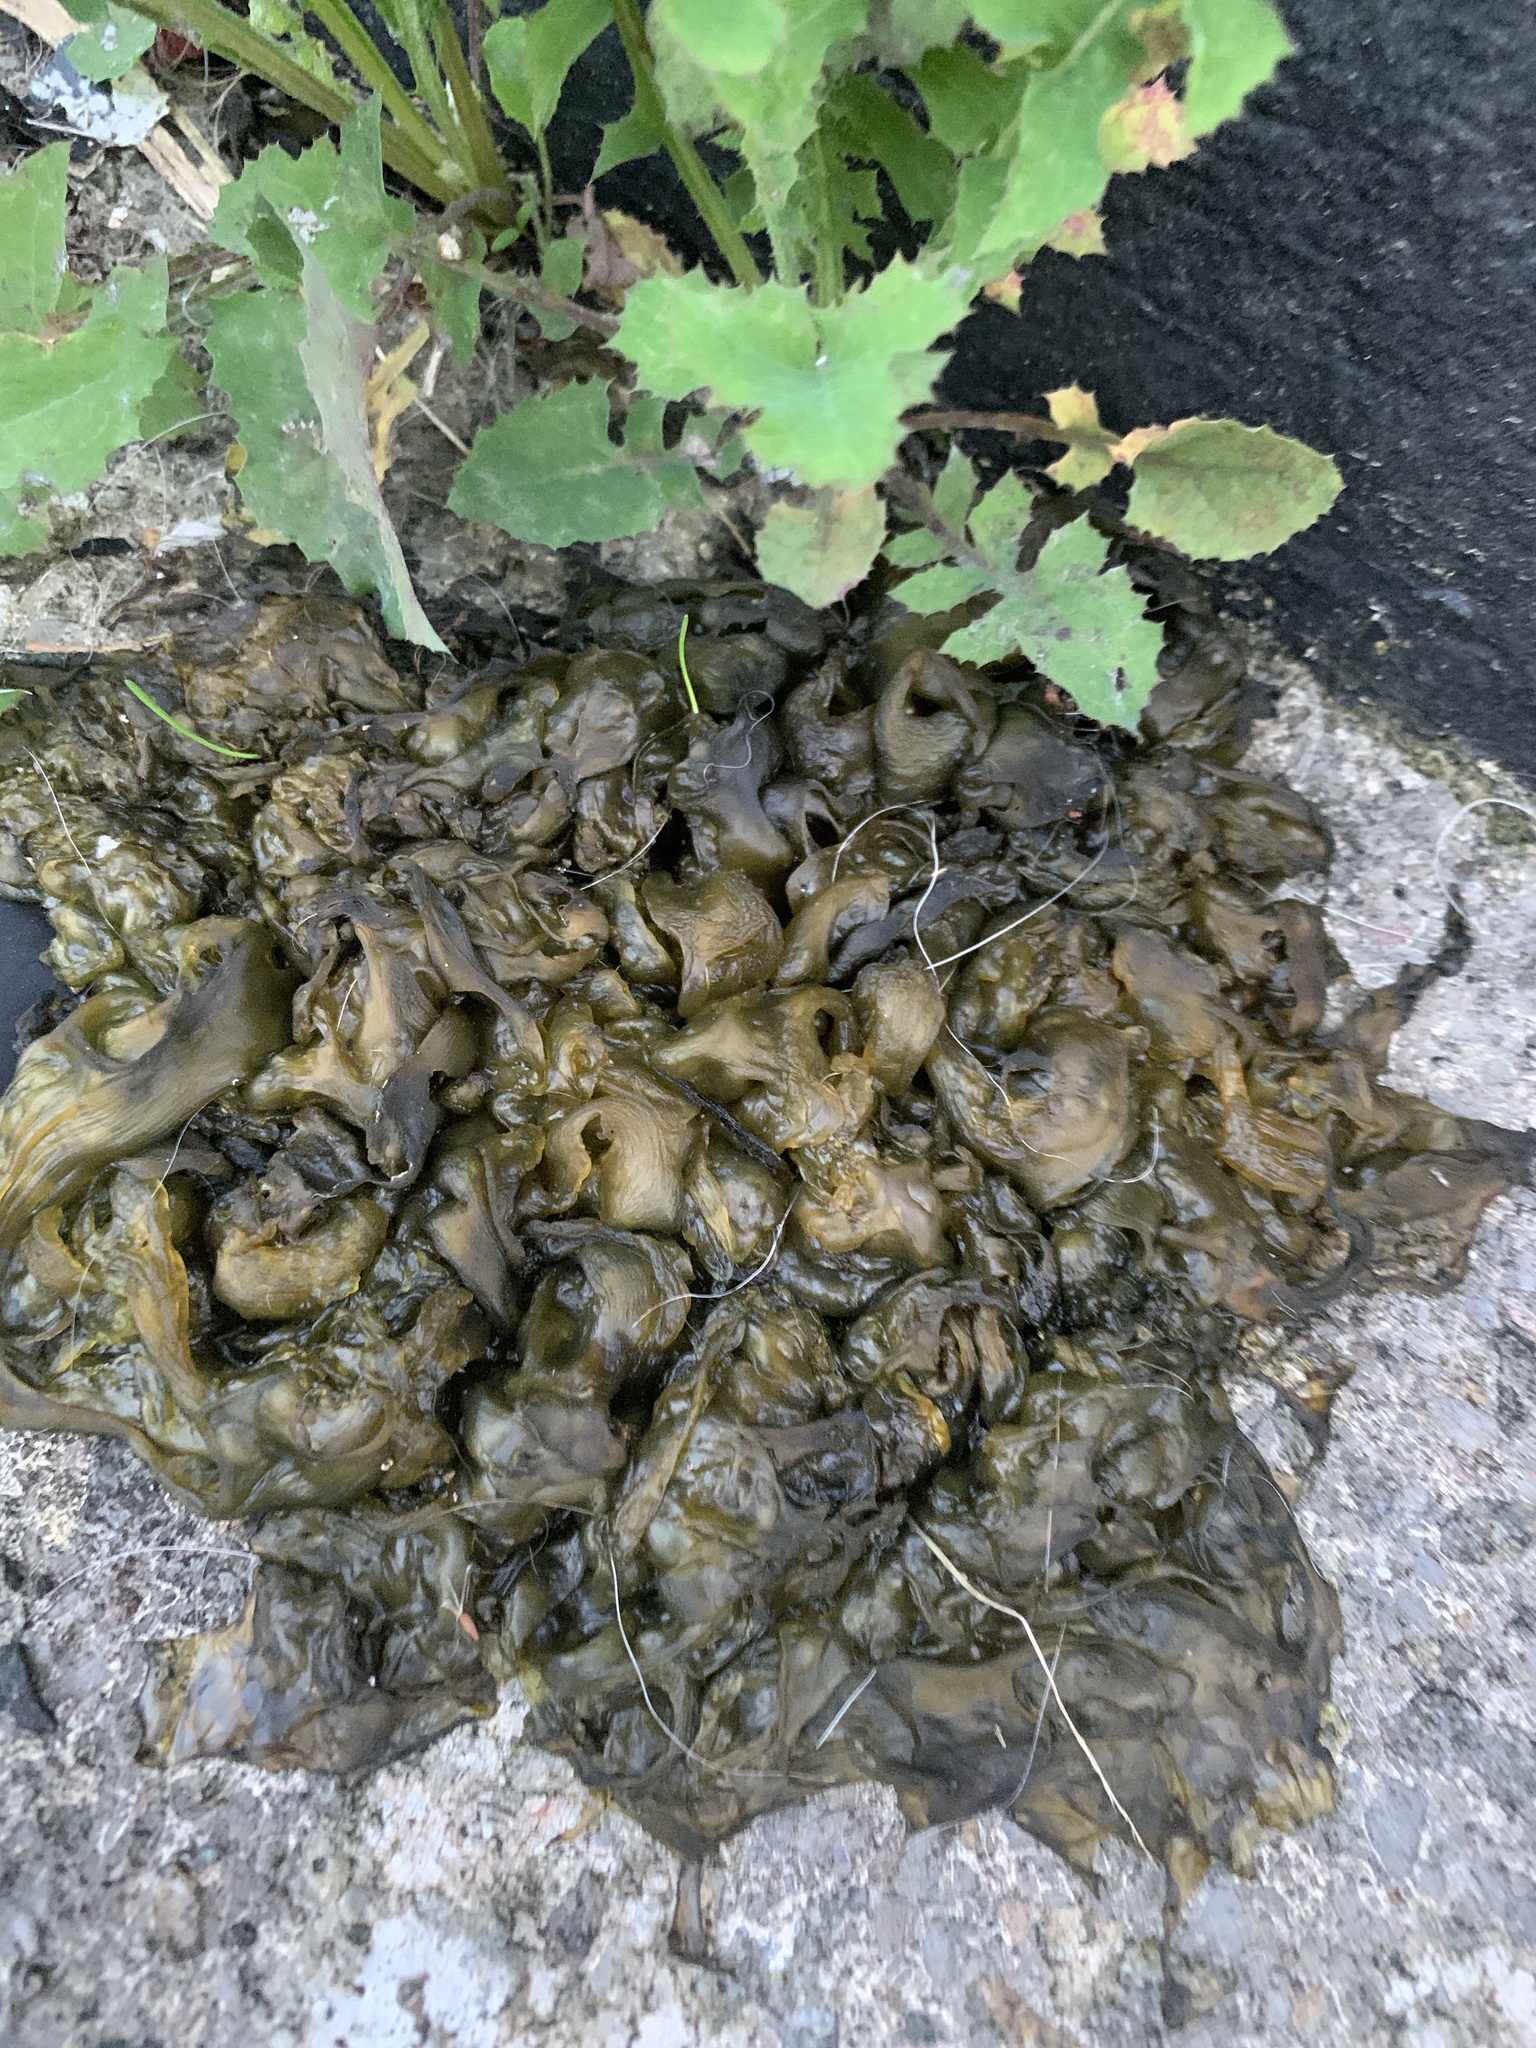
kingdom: Bacteria
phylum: Cyanobacteria
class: Cyanobacteriia
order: Cyanobacteriales
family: Nostocaceae
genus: Nostoc
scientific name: Nostoc commune
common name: Star jelly
